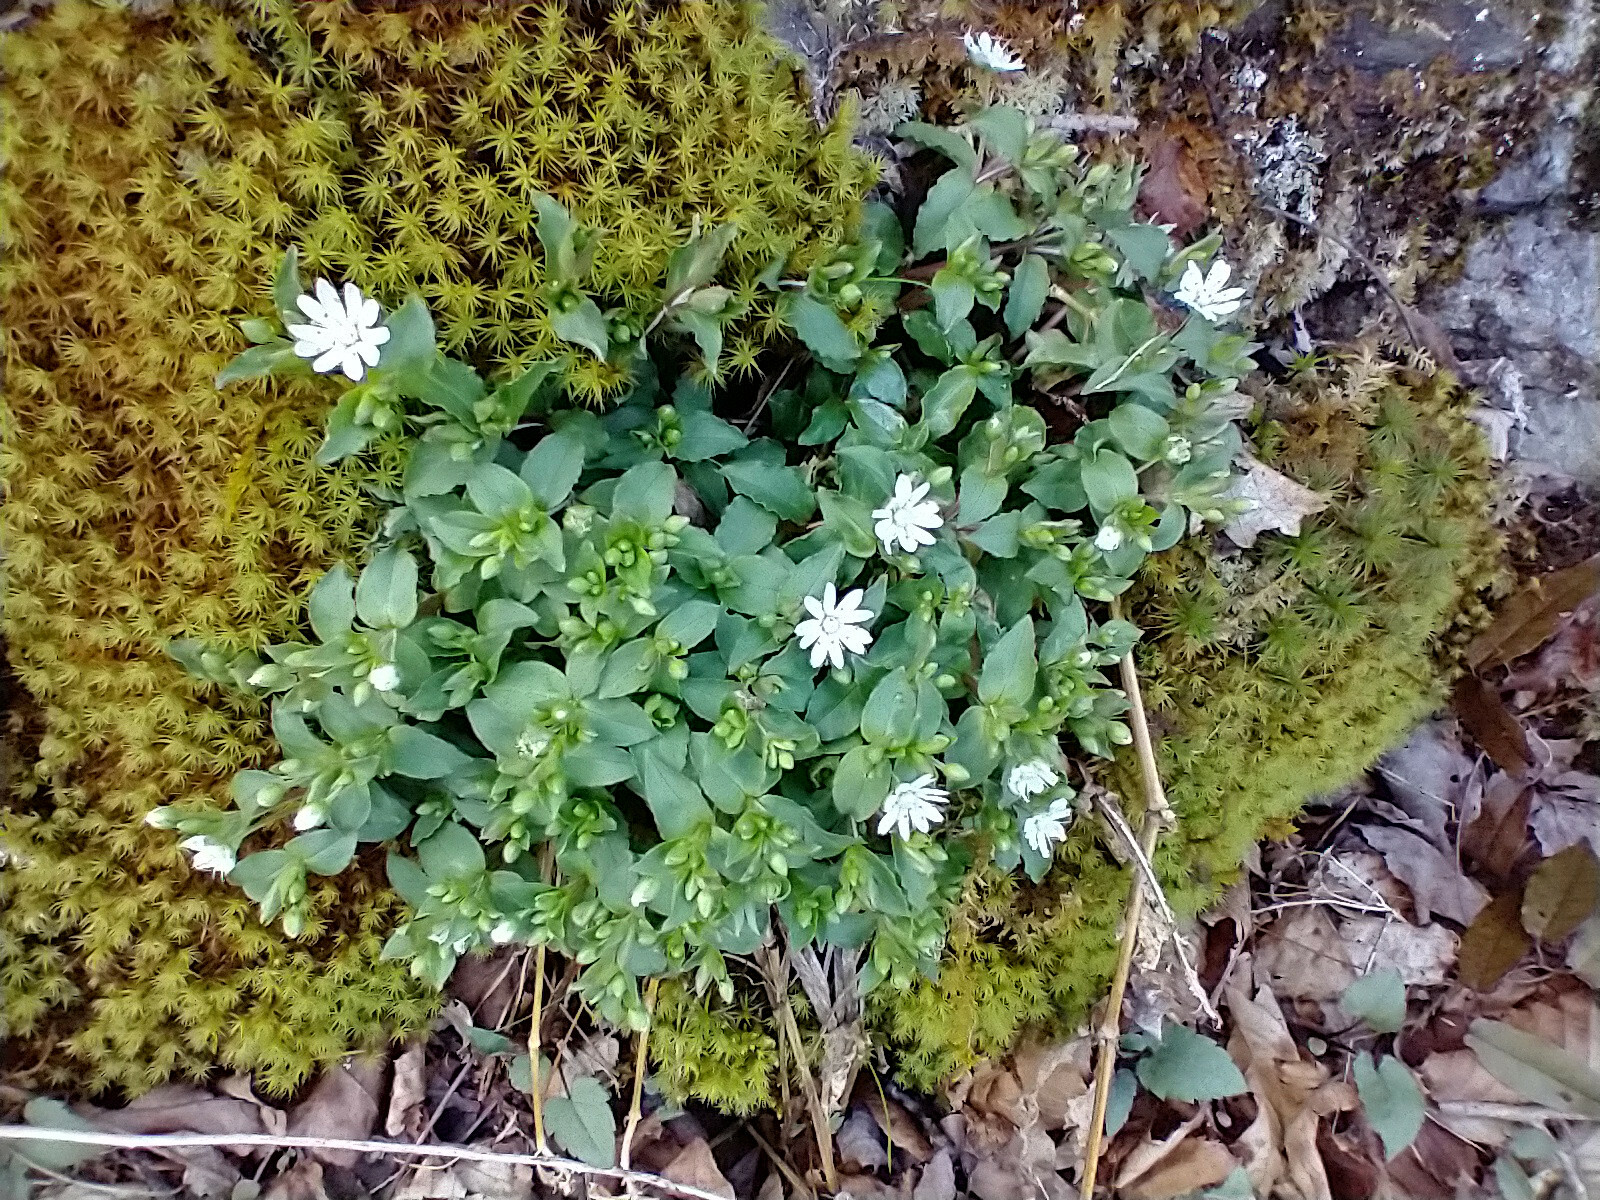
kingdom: Plantae
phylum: Tracheophyta
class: Magnoliopsida
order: Caryophyllales
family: Caryophyllaceae
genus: Stellaria
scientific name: Stellaria pubera
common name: Star chickweed
